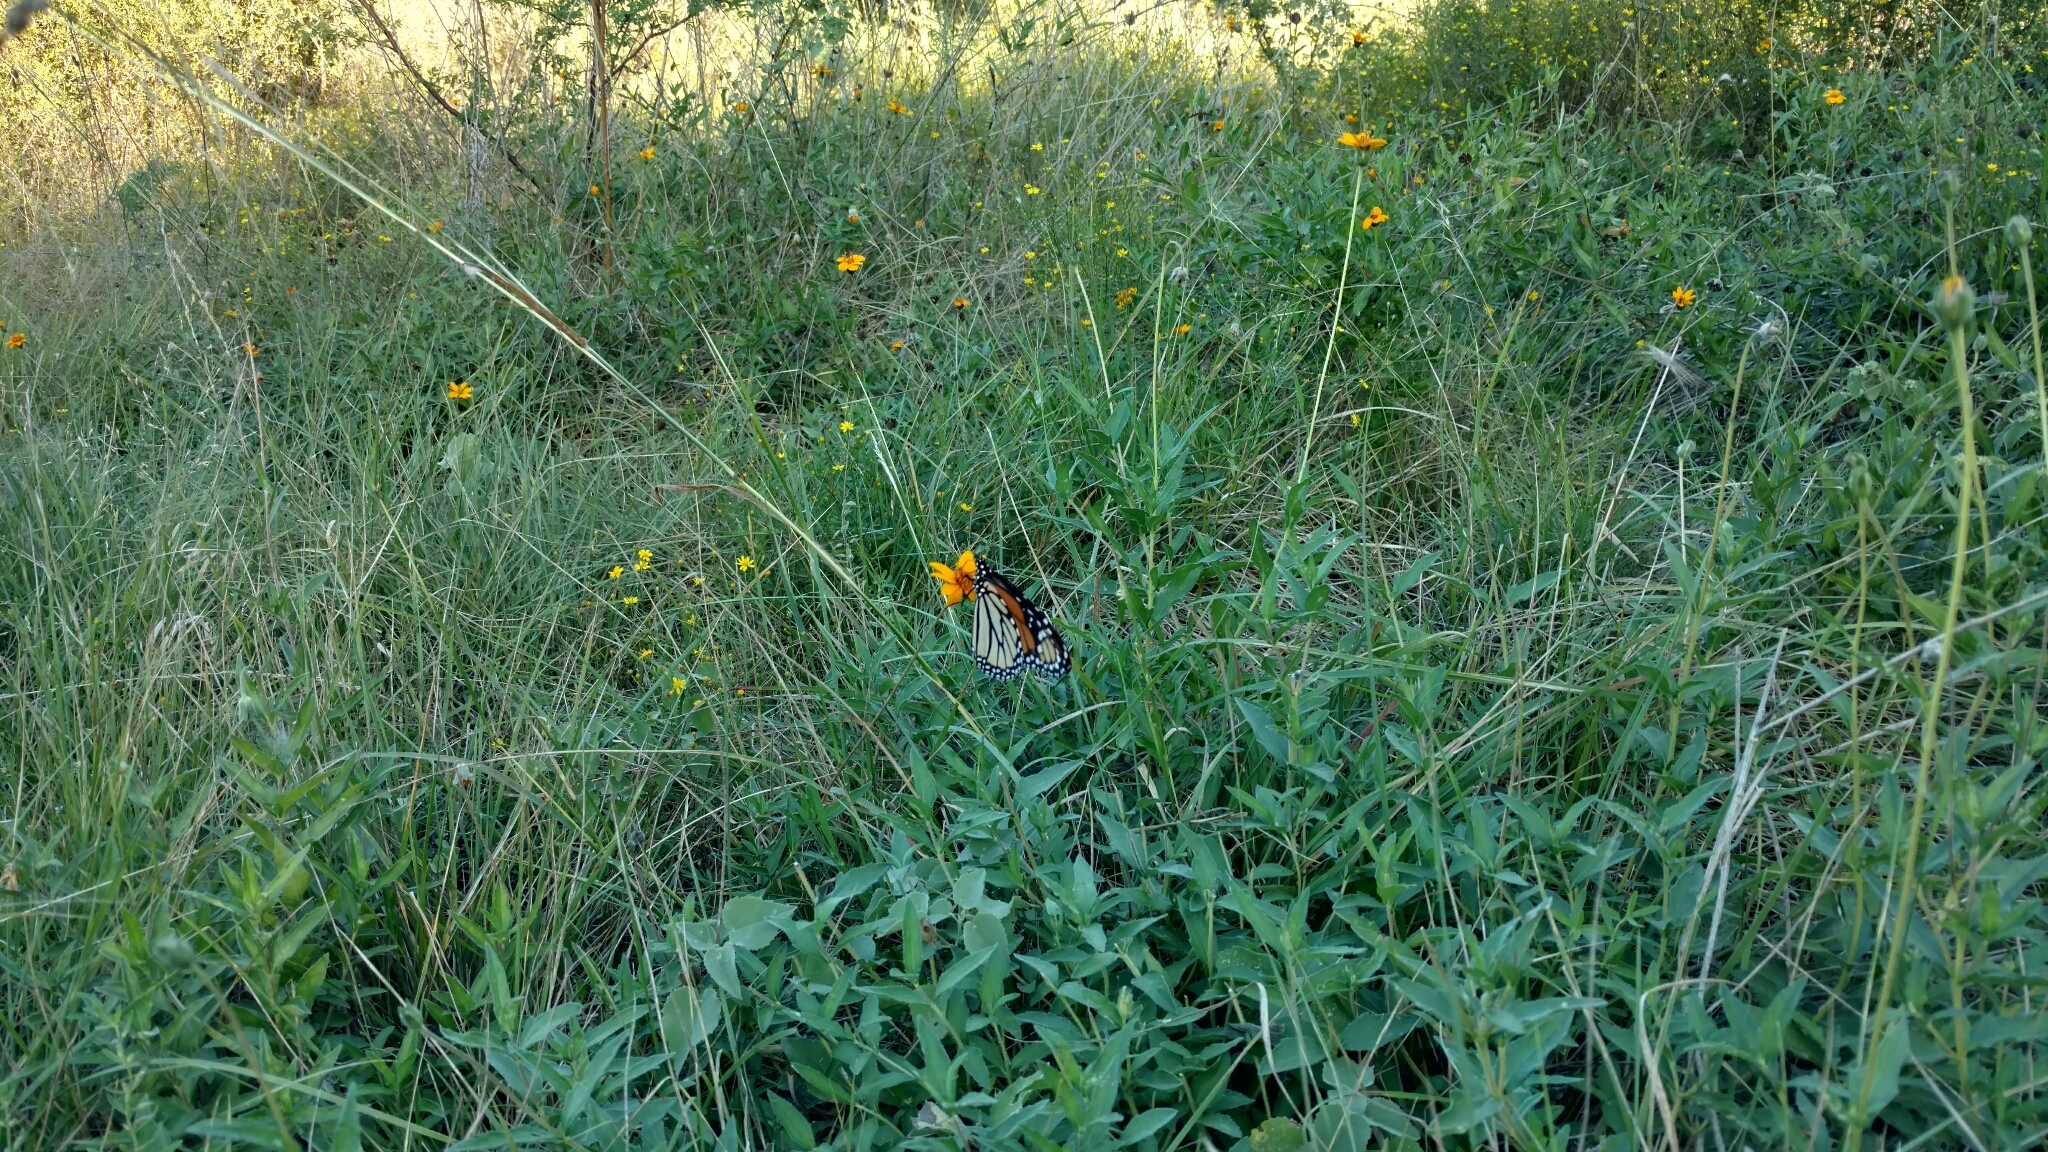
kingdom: Animalia
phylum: Arthropoda
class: Insecta
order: Lepidoptera
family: Nymphalidae
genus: Danaus
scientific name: Danaus plexippus
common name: Monarch
